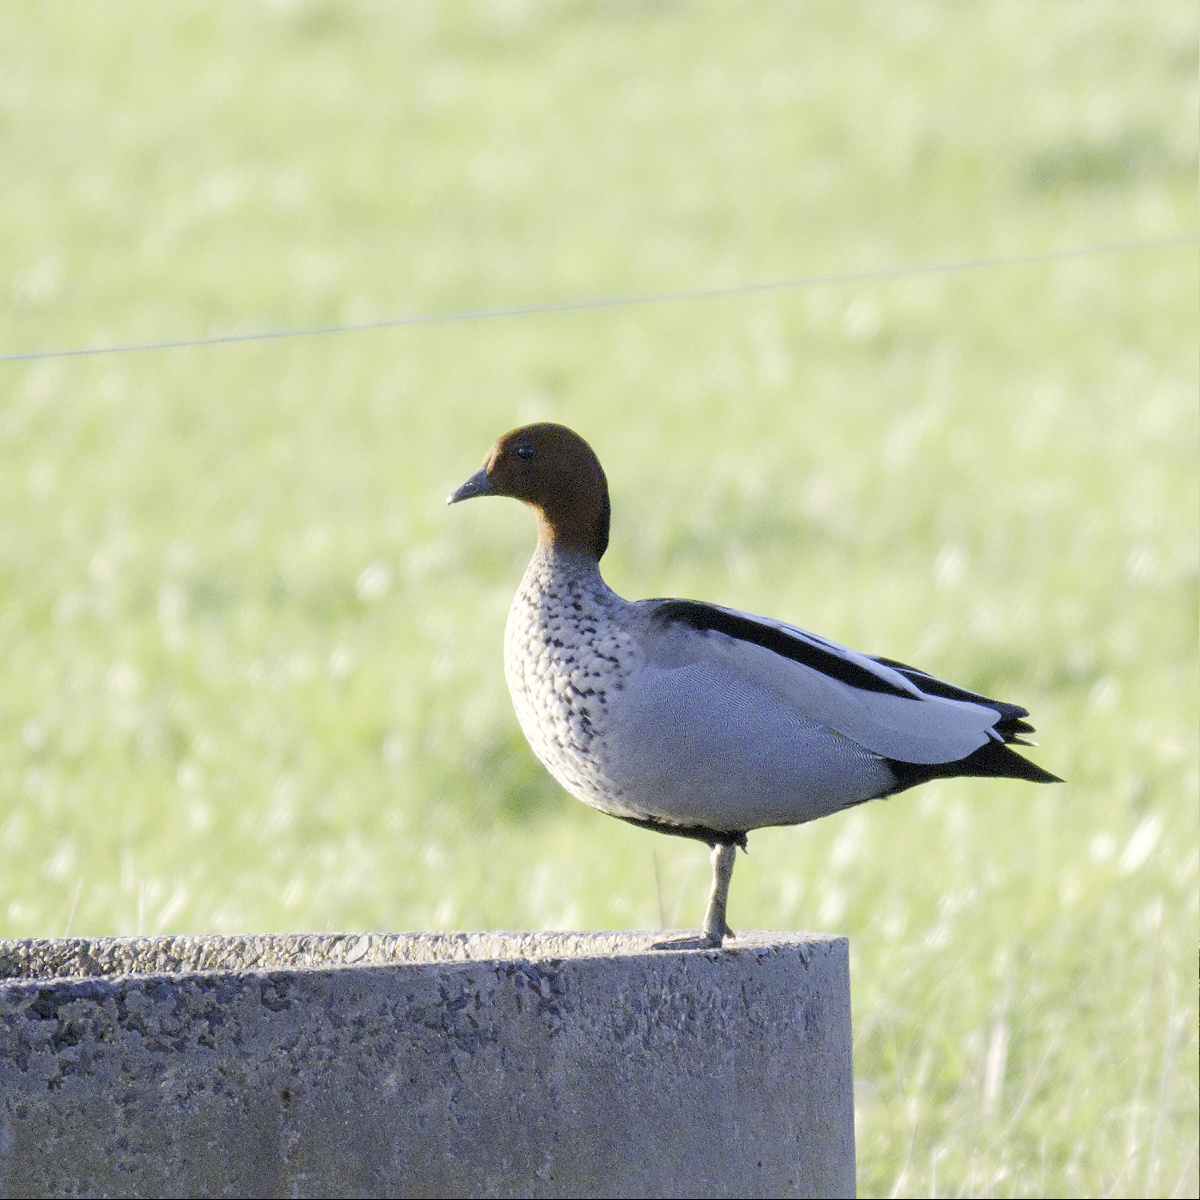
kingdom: Animalia
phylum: Chordata
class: Aves
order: Anseriformes
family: Anatidae
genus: Chenonetta
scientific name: Chenonetta jubata
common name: Maned duck
